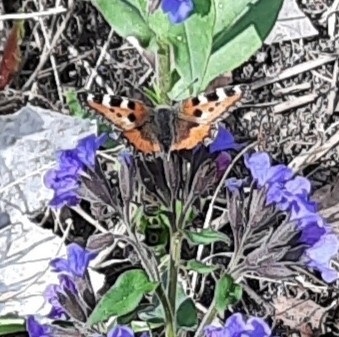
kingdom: Animalia
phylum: Arthropoda
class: Insecta
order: Lepidoptera
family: Nymphalidae
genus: Aglais
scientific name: Aglais urticae
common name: Small tortoiseshell
